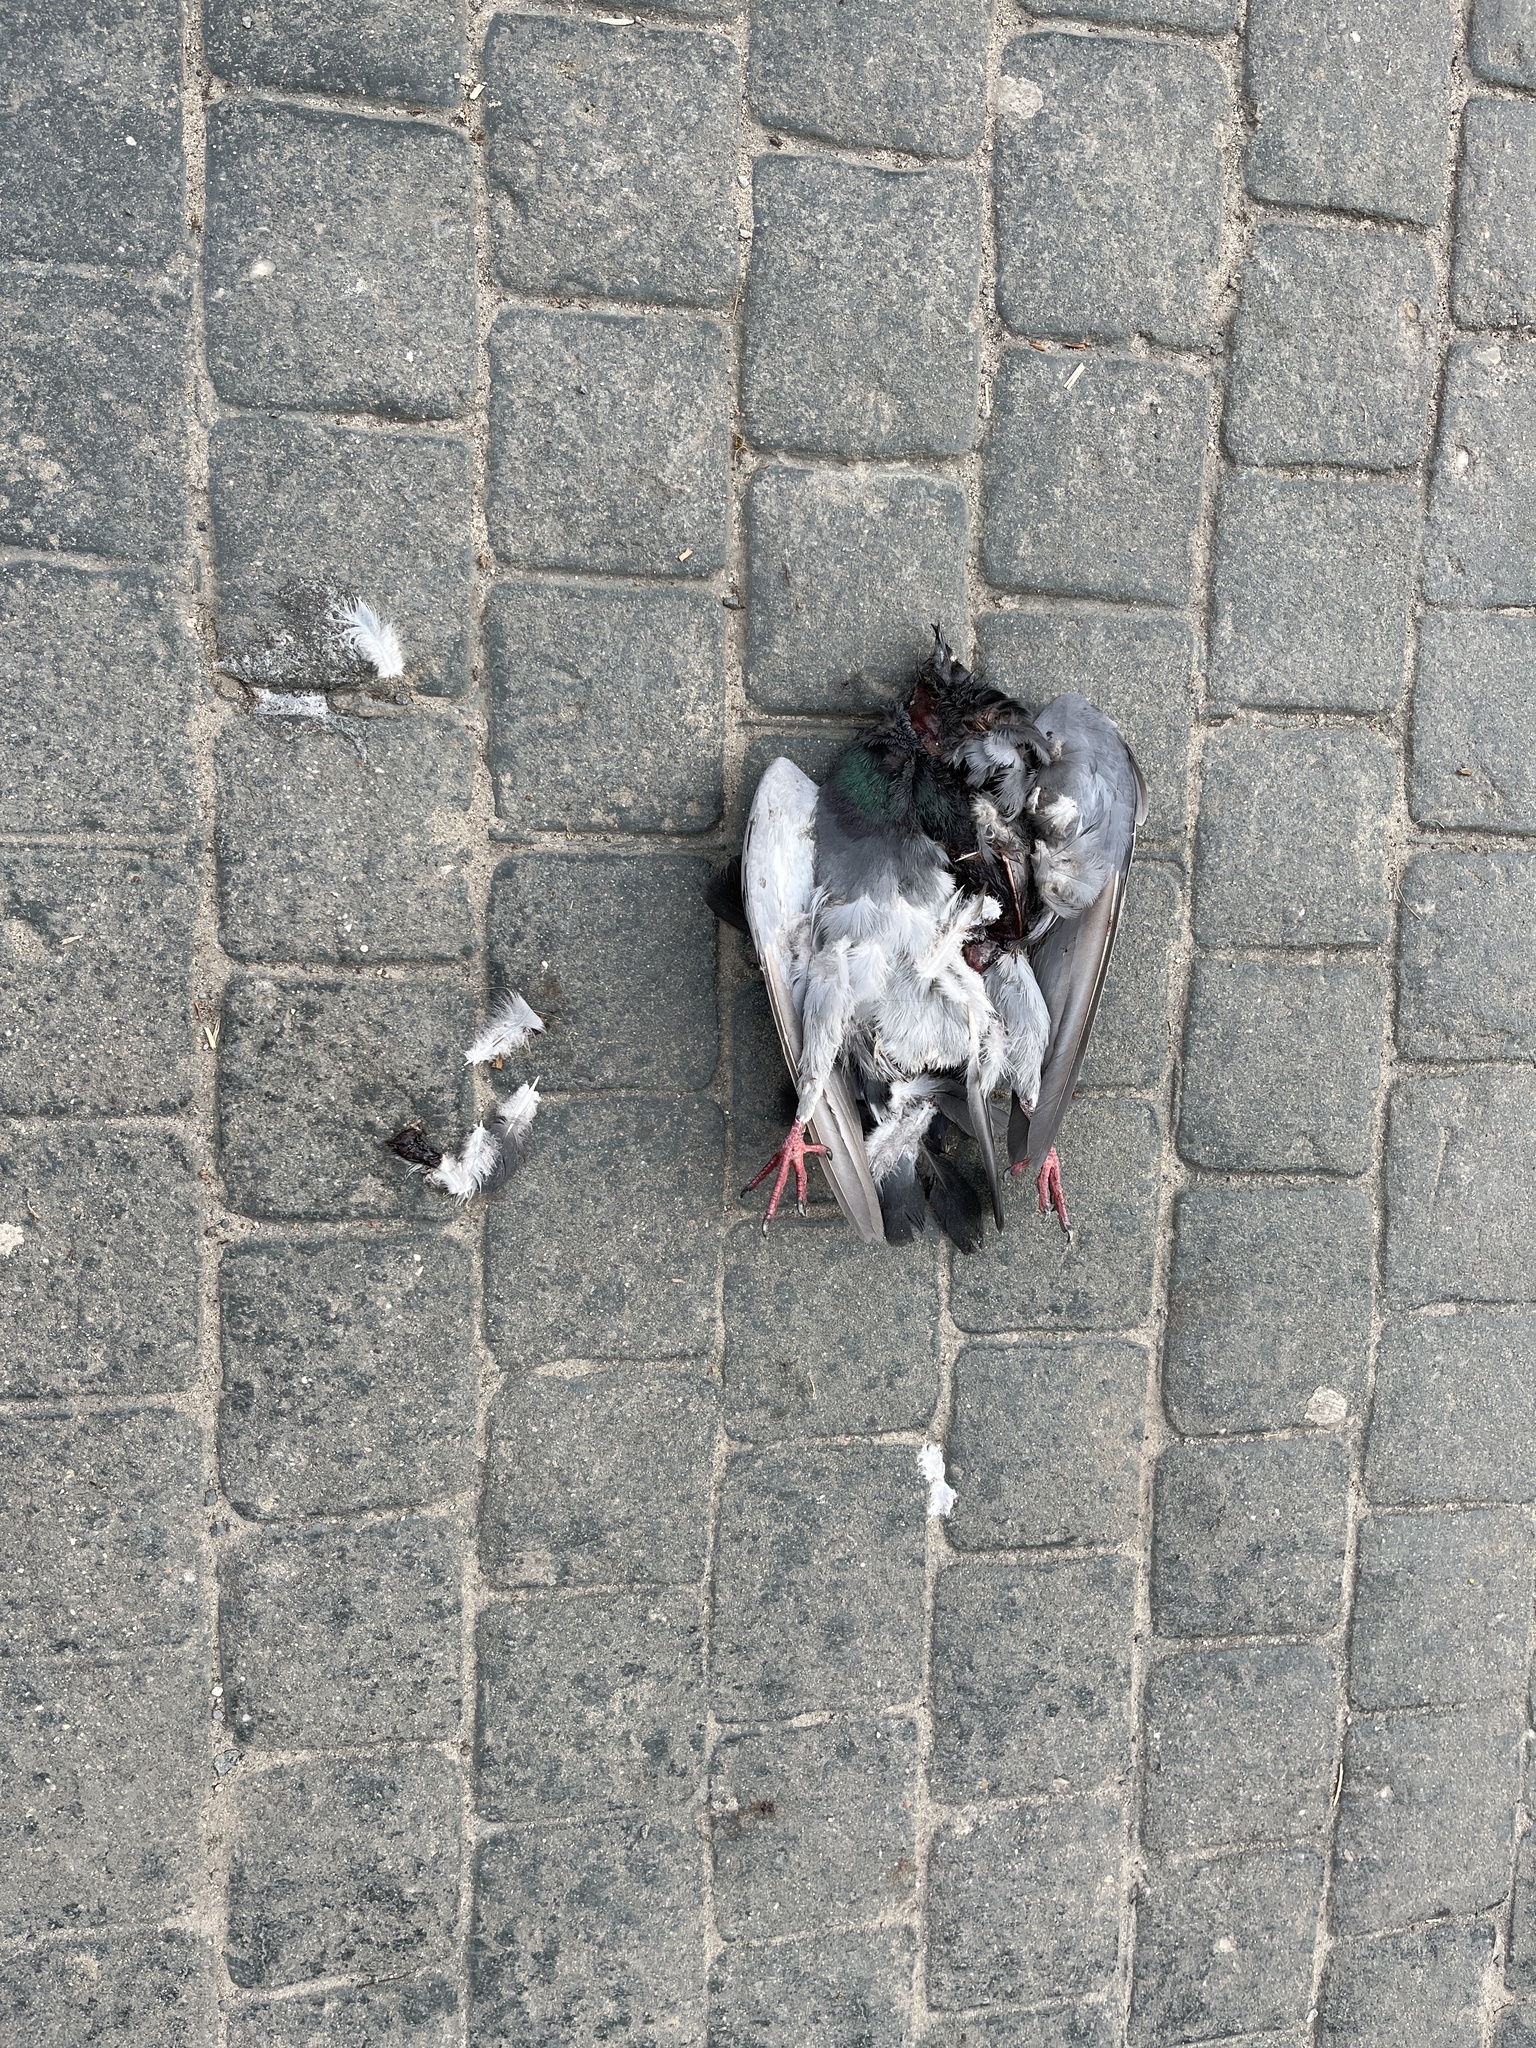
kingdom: Animalia
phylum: Chordata
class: Aves
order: Columbiformes
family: Columbidae
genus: Columba
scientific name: Columba livia
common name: Rock pigeon
